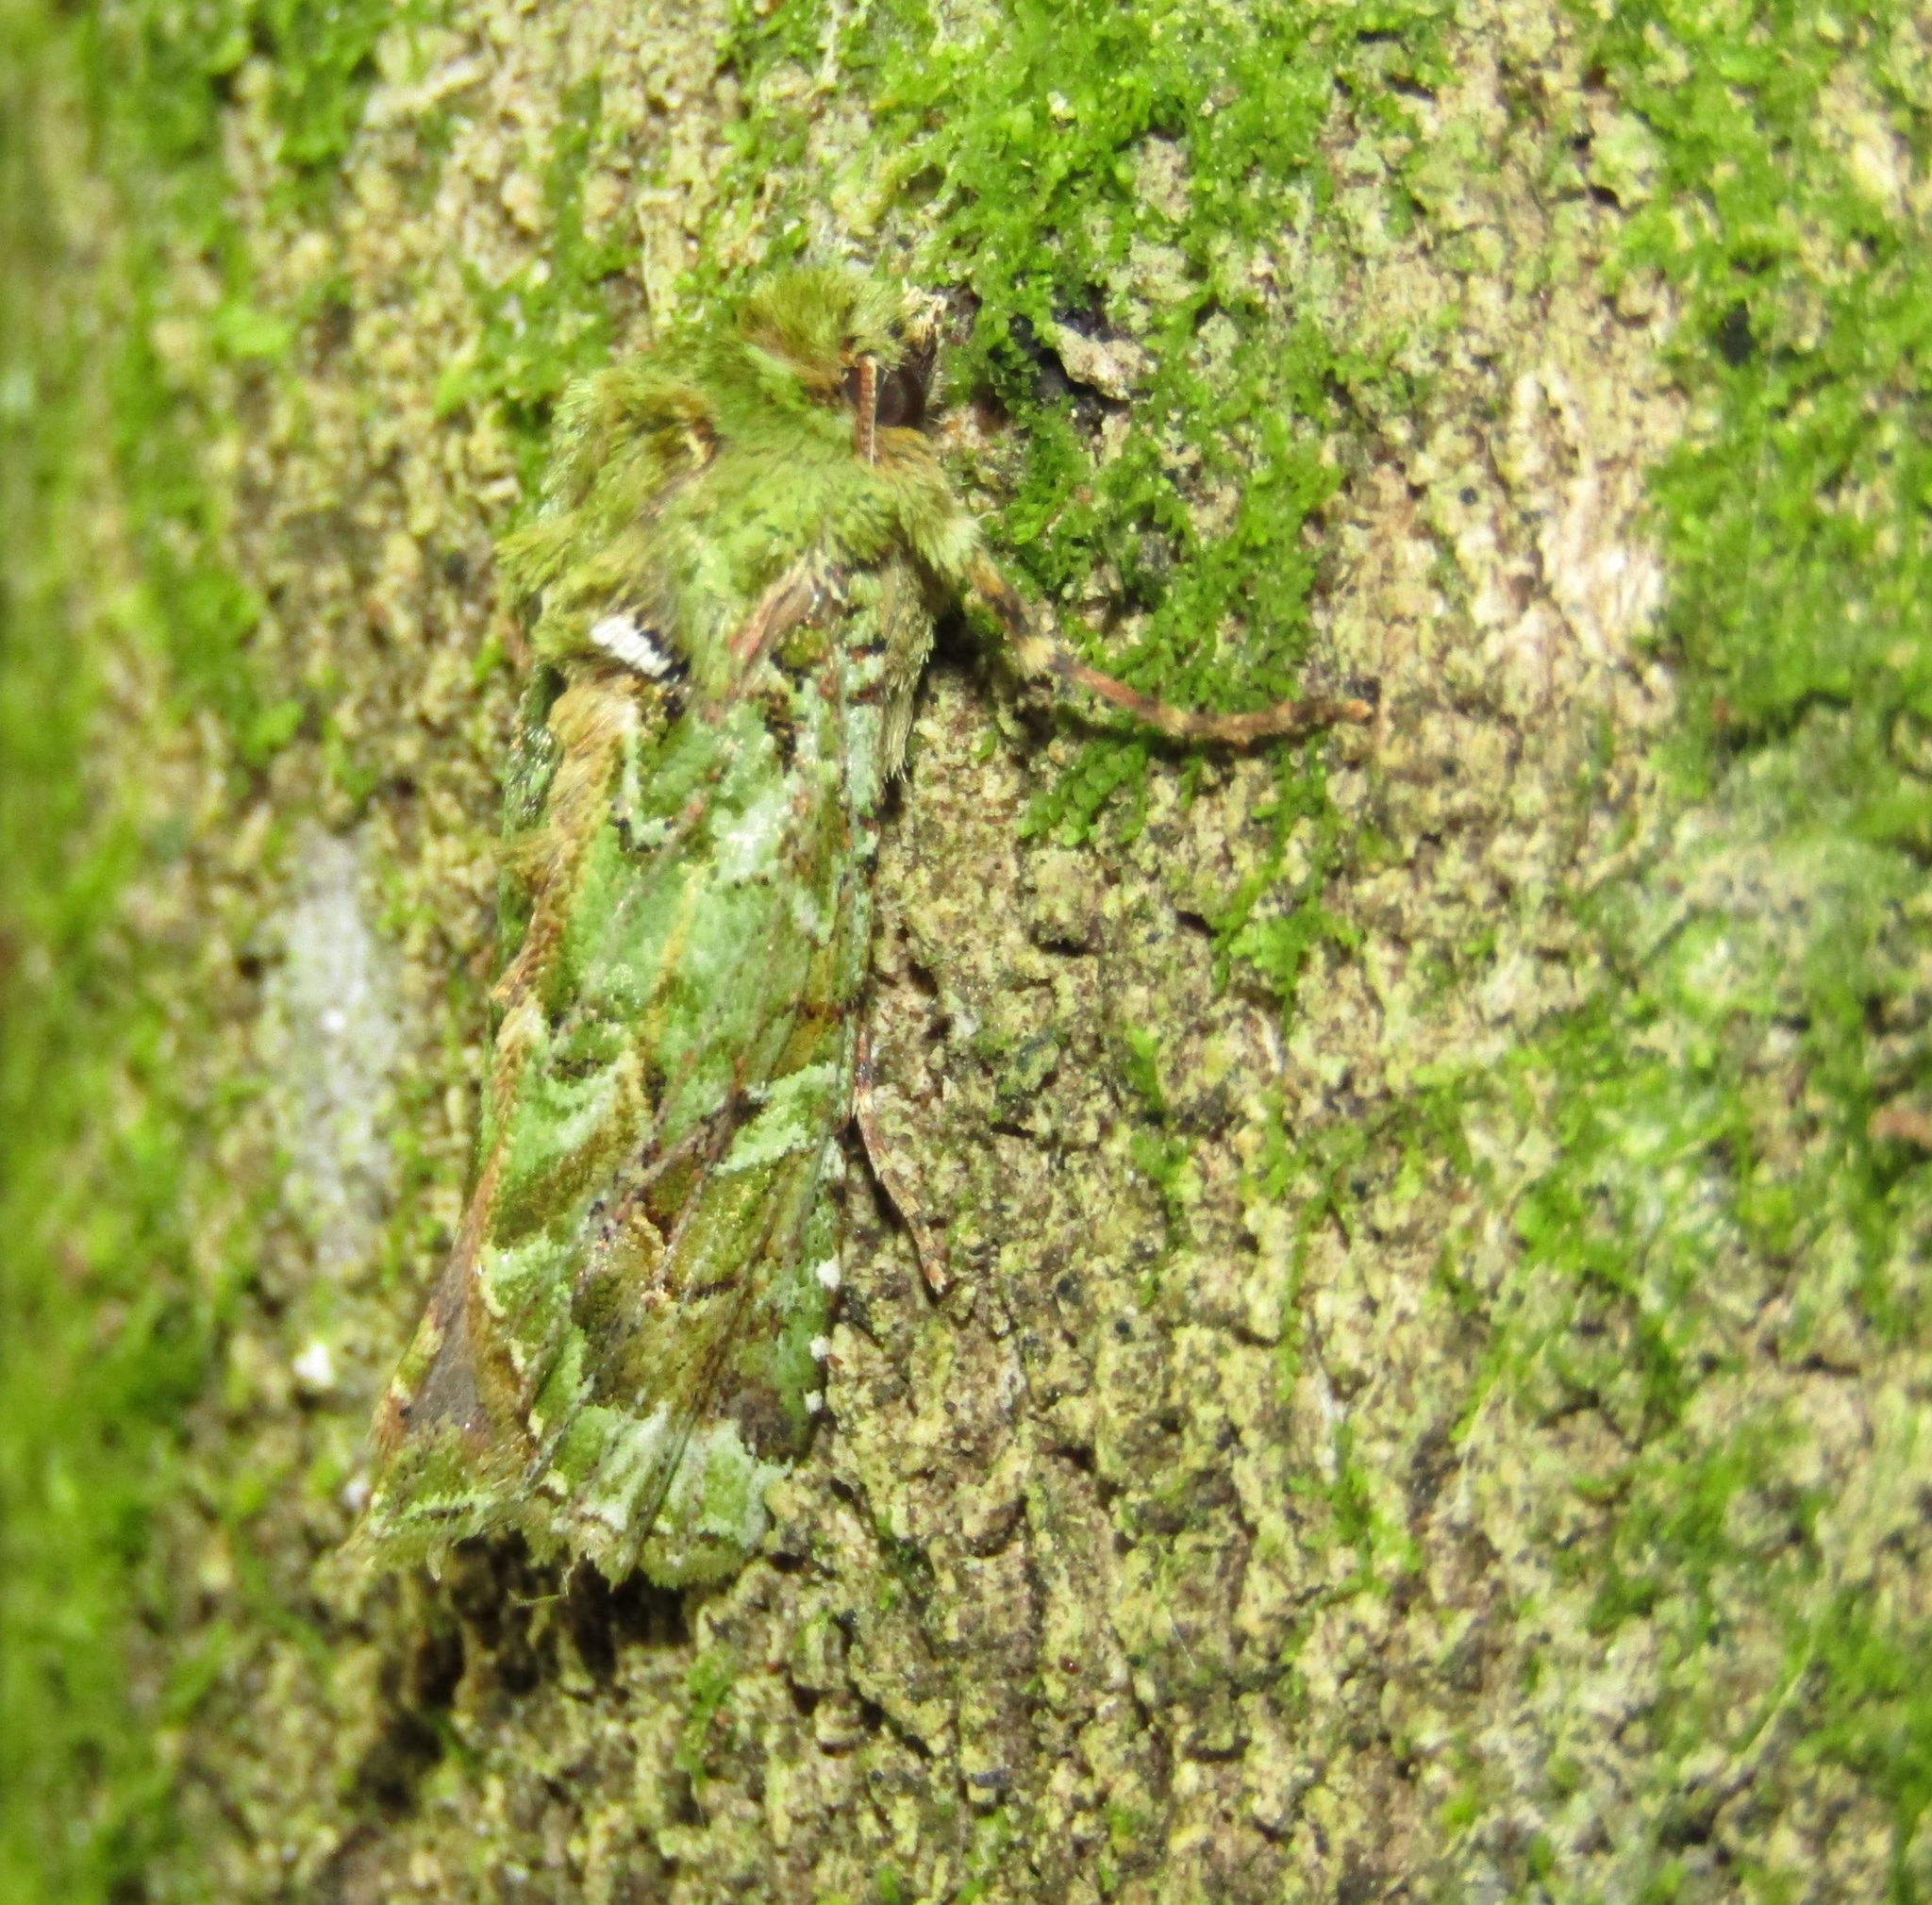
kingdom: Animalia
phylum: Arthropoda
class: Insecta
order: Lepidoptera
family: Noctuidae
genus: Feredayia
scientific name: Feredayia grammosa
